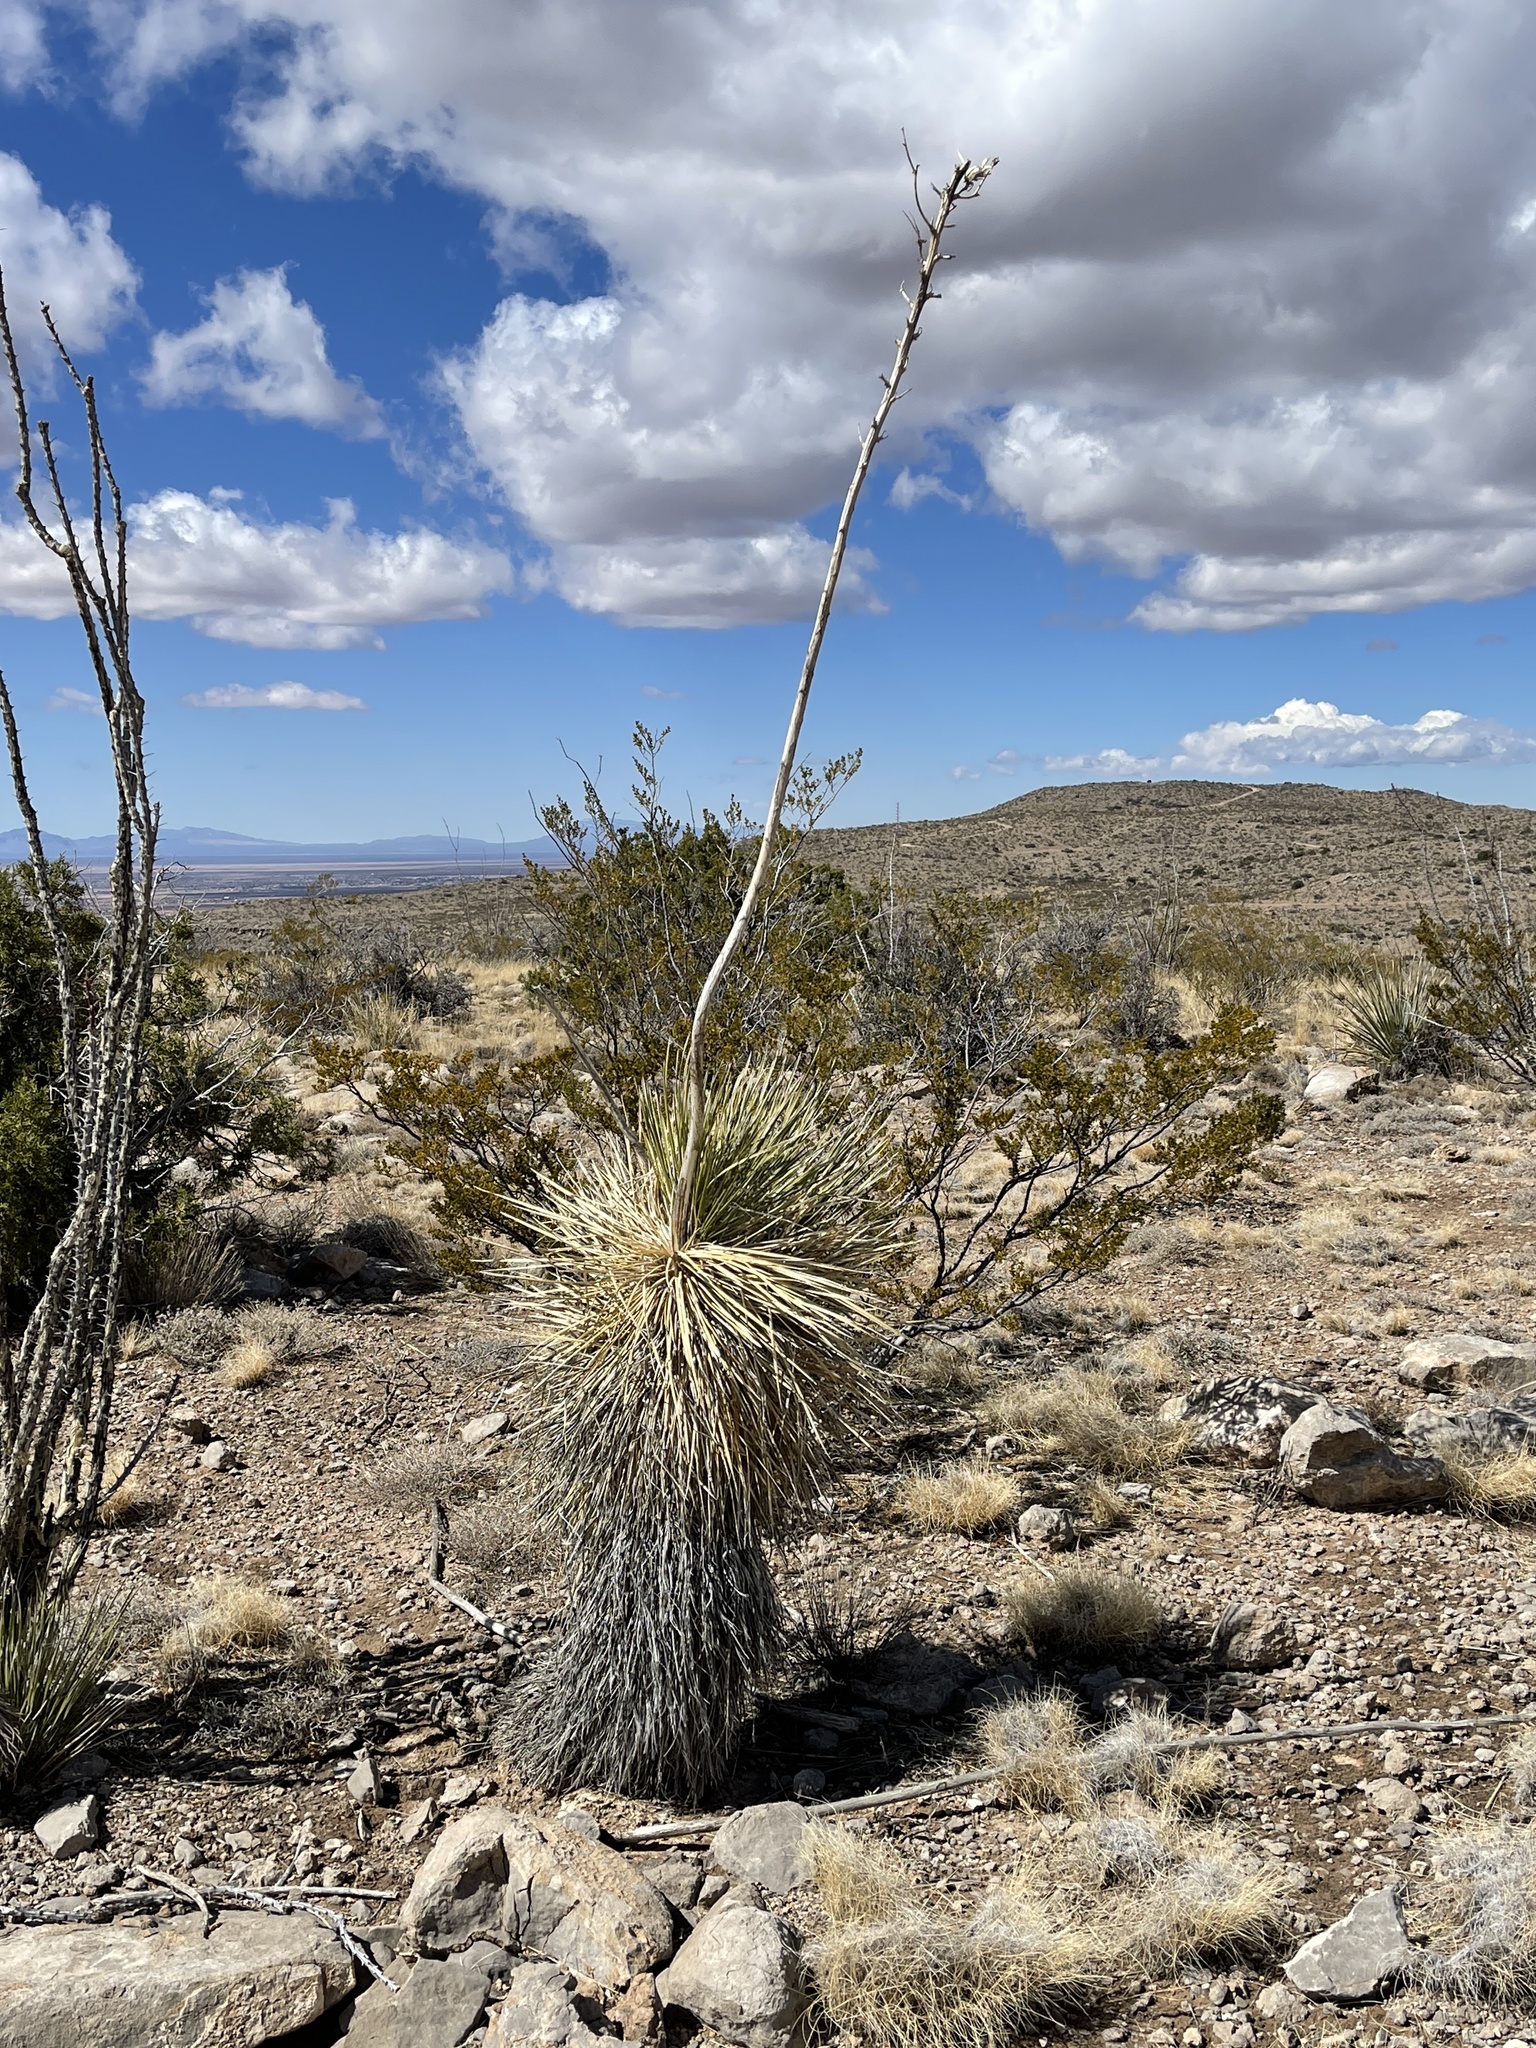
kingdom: Plantae
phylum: Tracheophyta
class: Liliopsida
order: Asparagales
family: Asparagaceae
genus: Yucca
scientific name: Yucca elata
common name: Palmella
